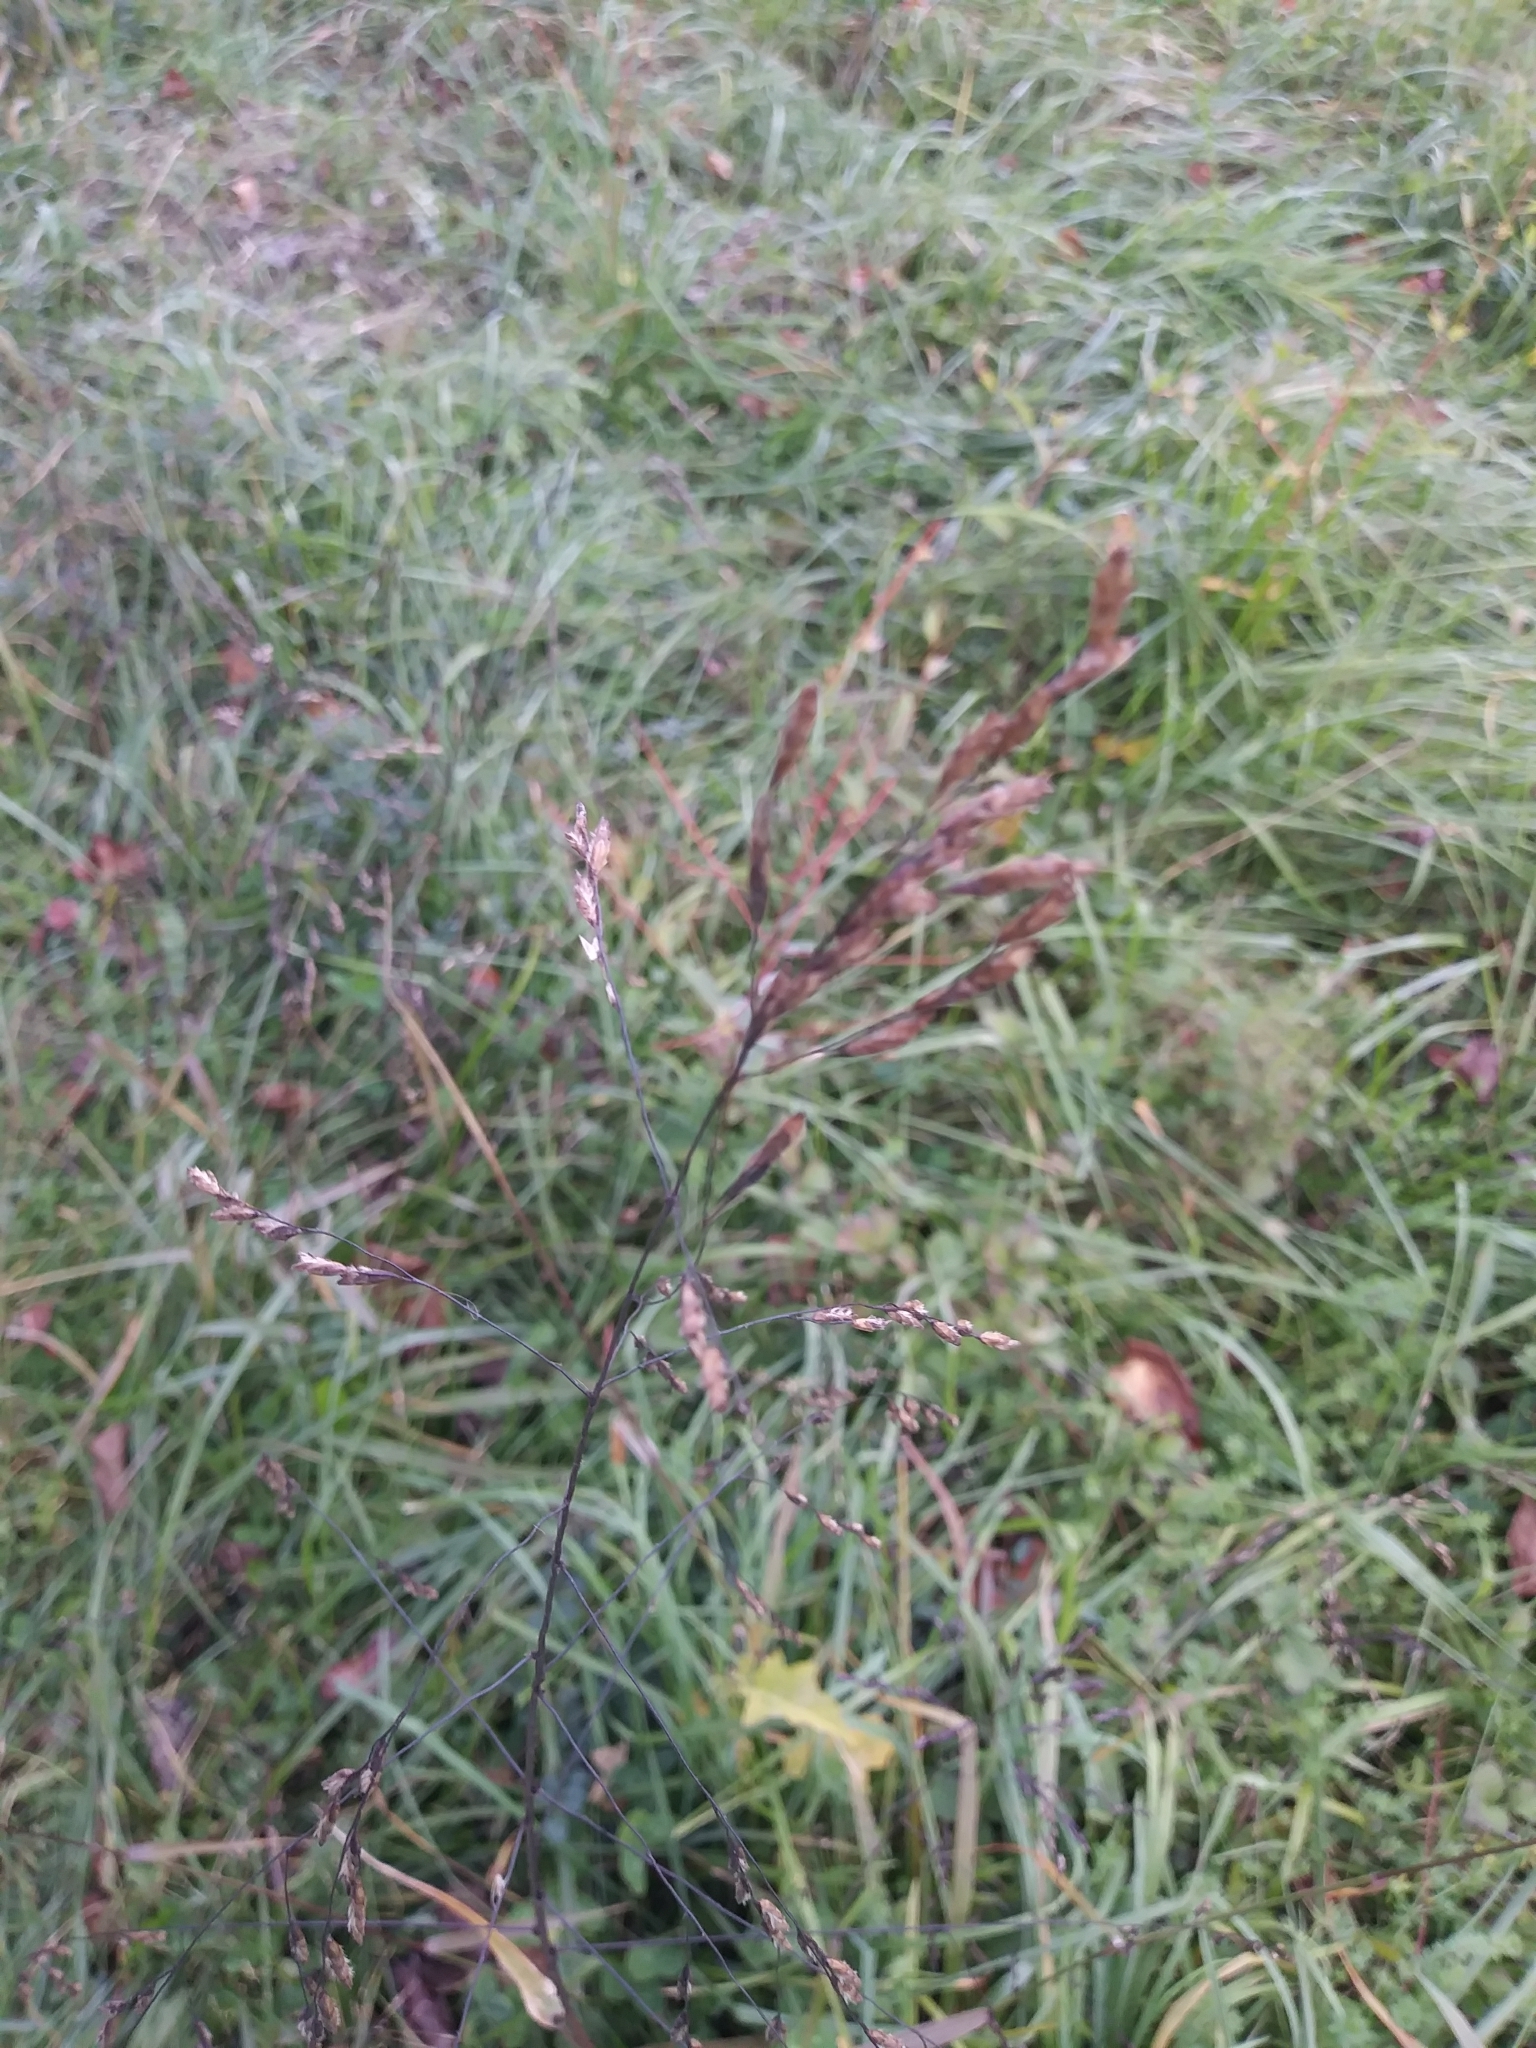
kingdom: Plantae
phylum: Tracheophyta
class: Liliopsida
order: Poales
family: Poaceae
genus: Tridens
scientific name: Tridens flavus
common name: Purpletop
